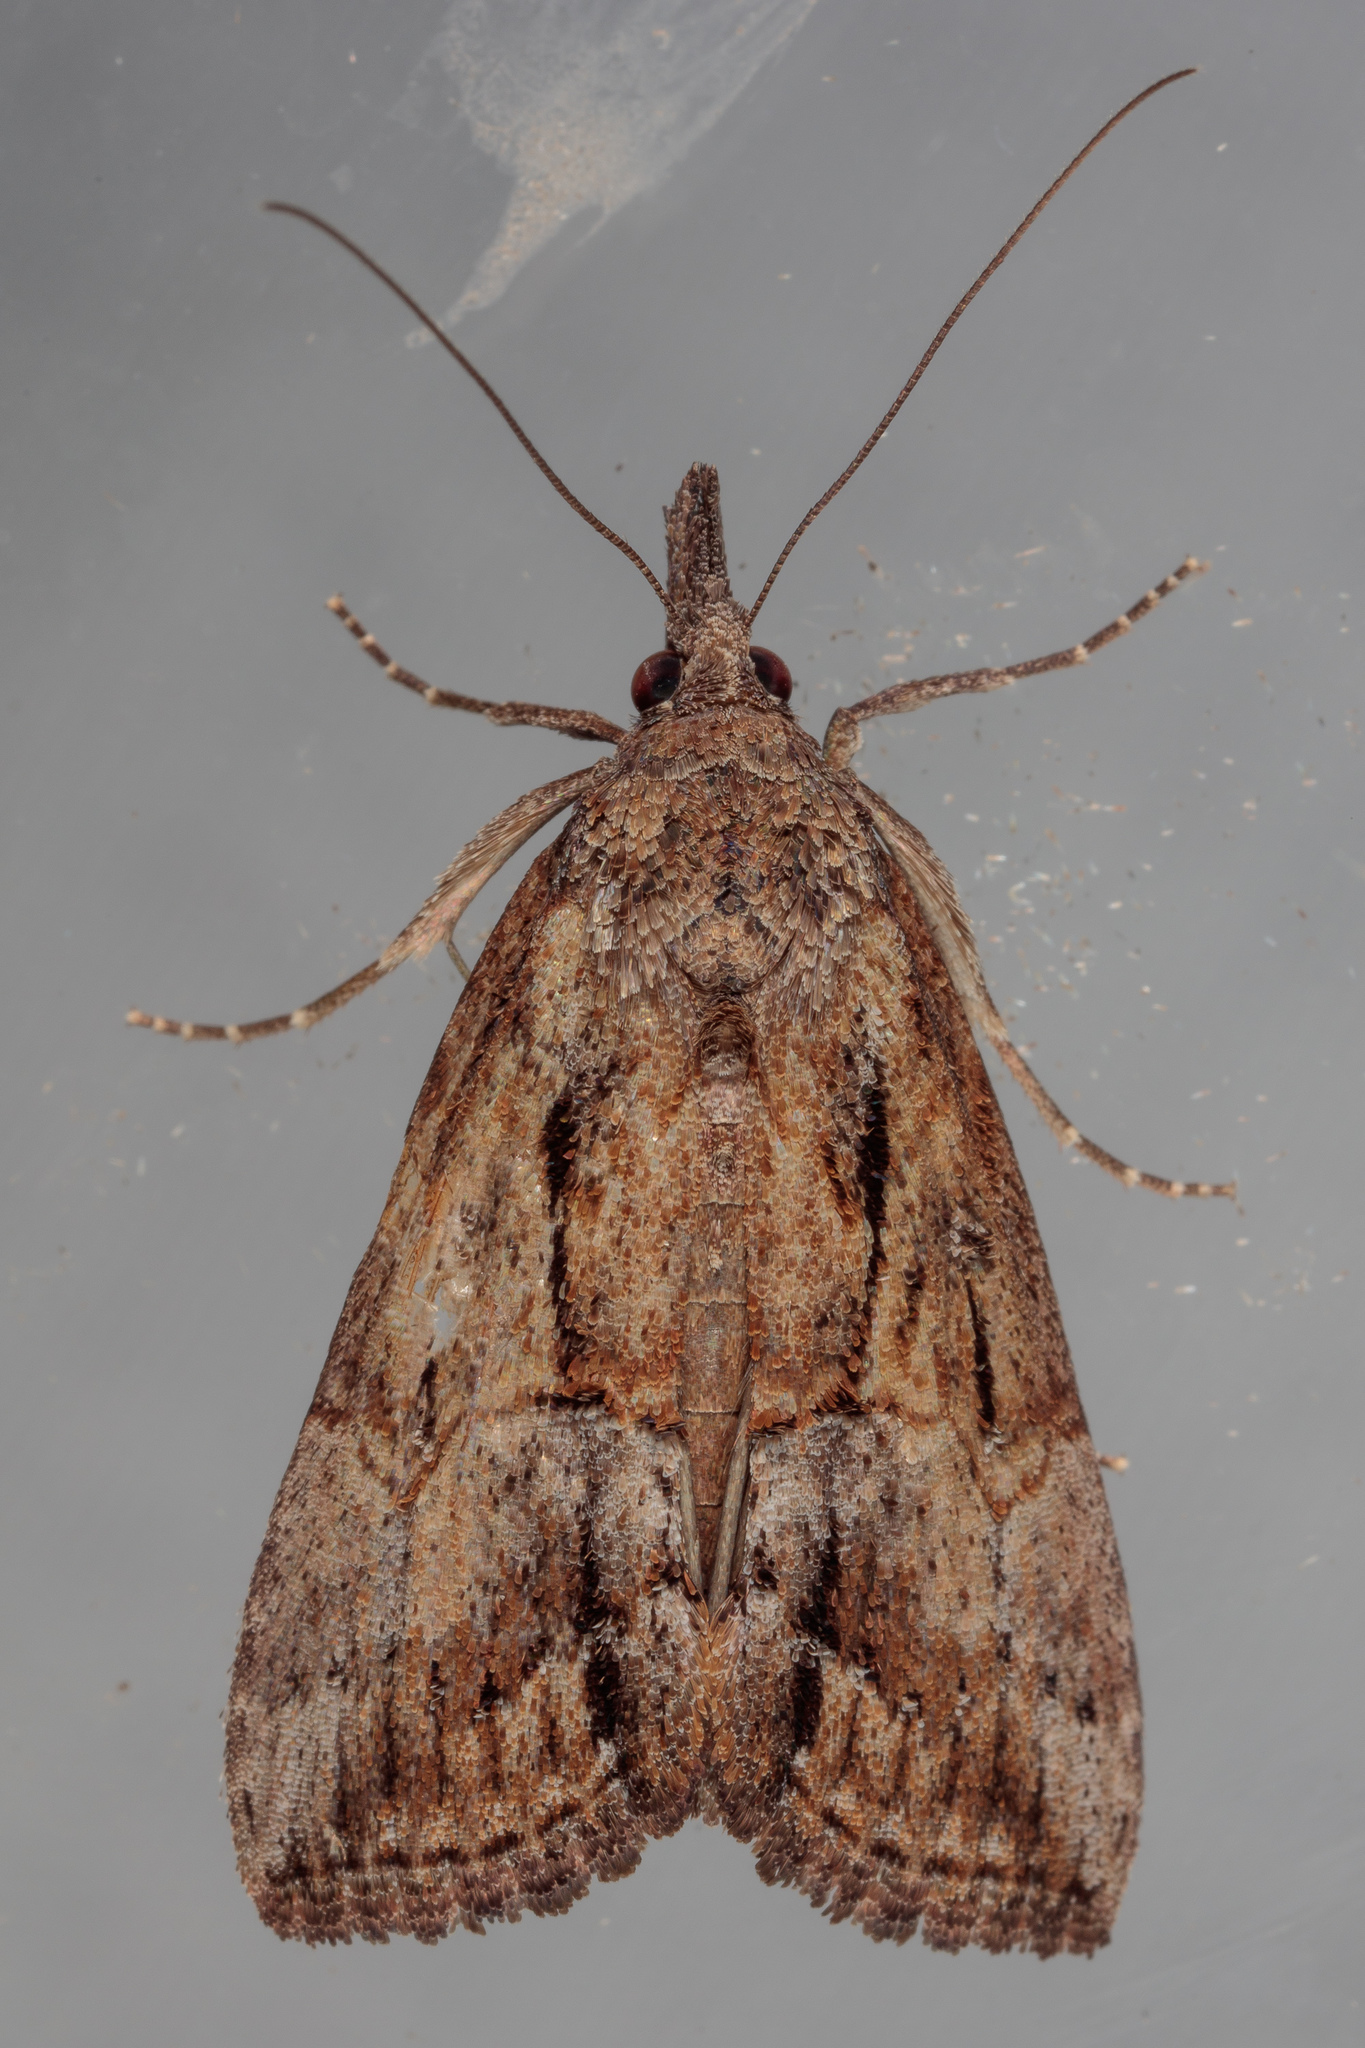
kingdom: Animalia
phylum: Arthropoda
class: Insecta
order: Lepidoptera
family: Erebidae
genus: Hypena
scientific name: Hypena scabra
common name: Green cloverworm
